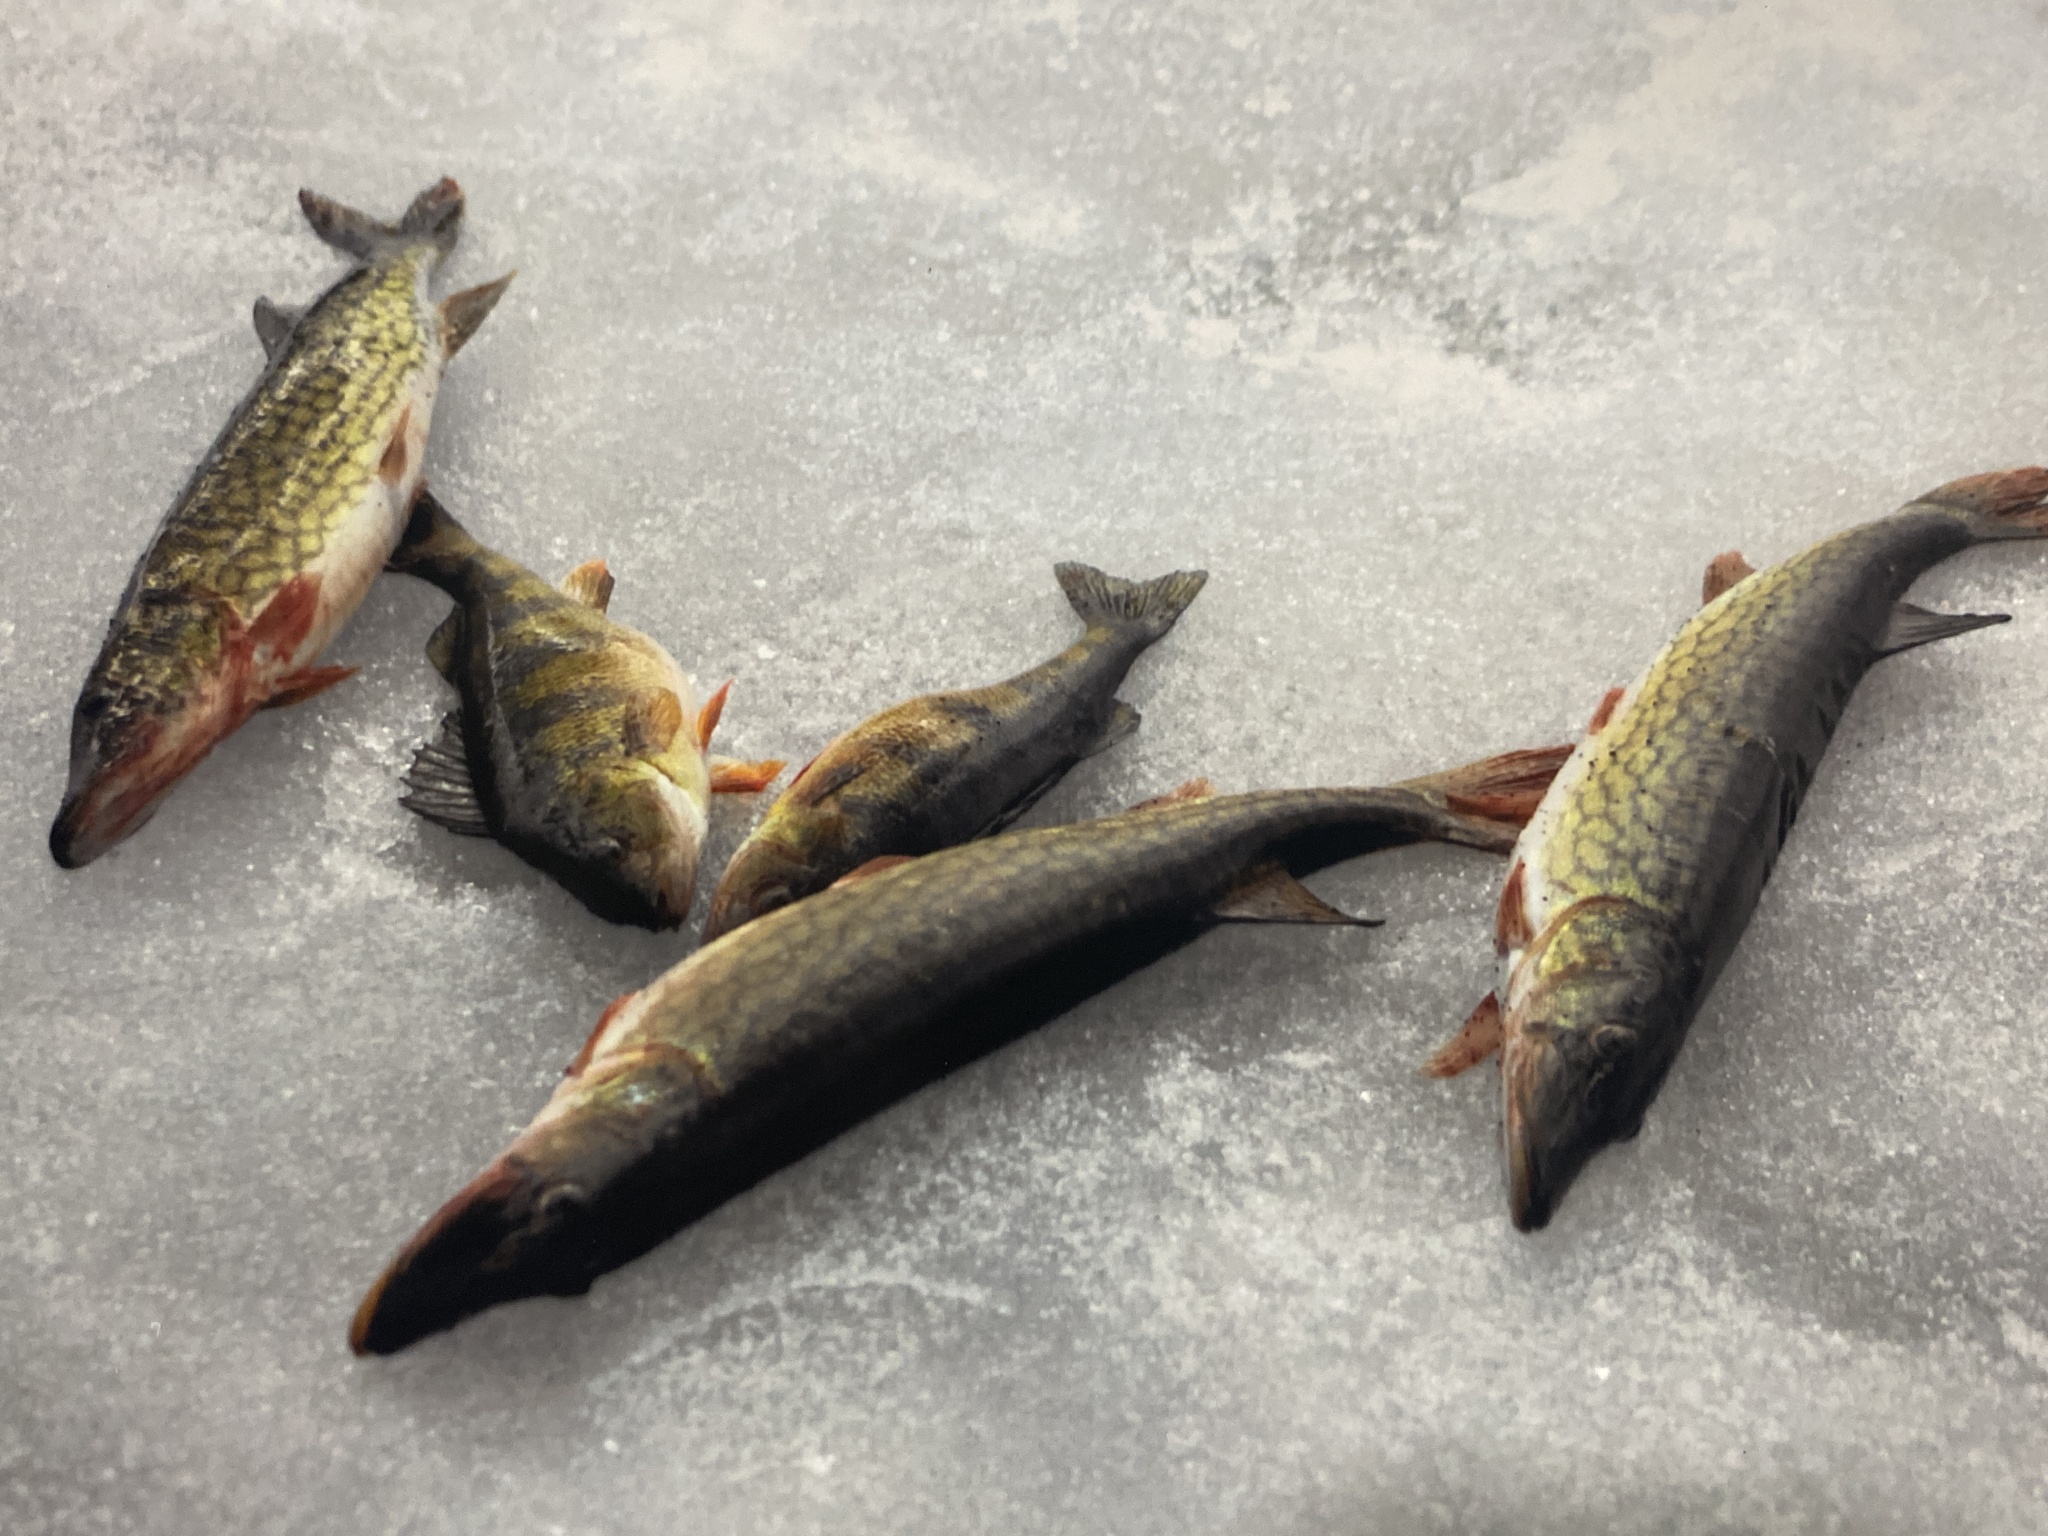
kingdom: Animalia
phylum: Chordata
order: Esociformes
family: Esocidae
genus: Esox
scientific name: Esox niger
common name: Chain pickerel
